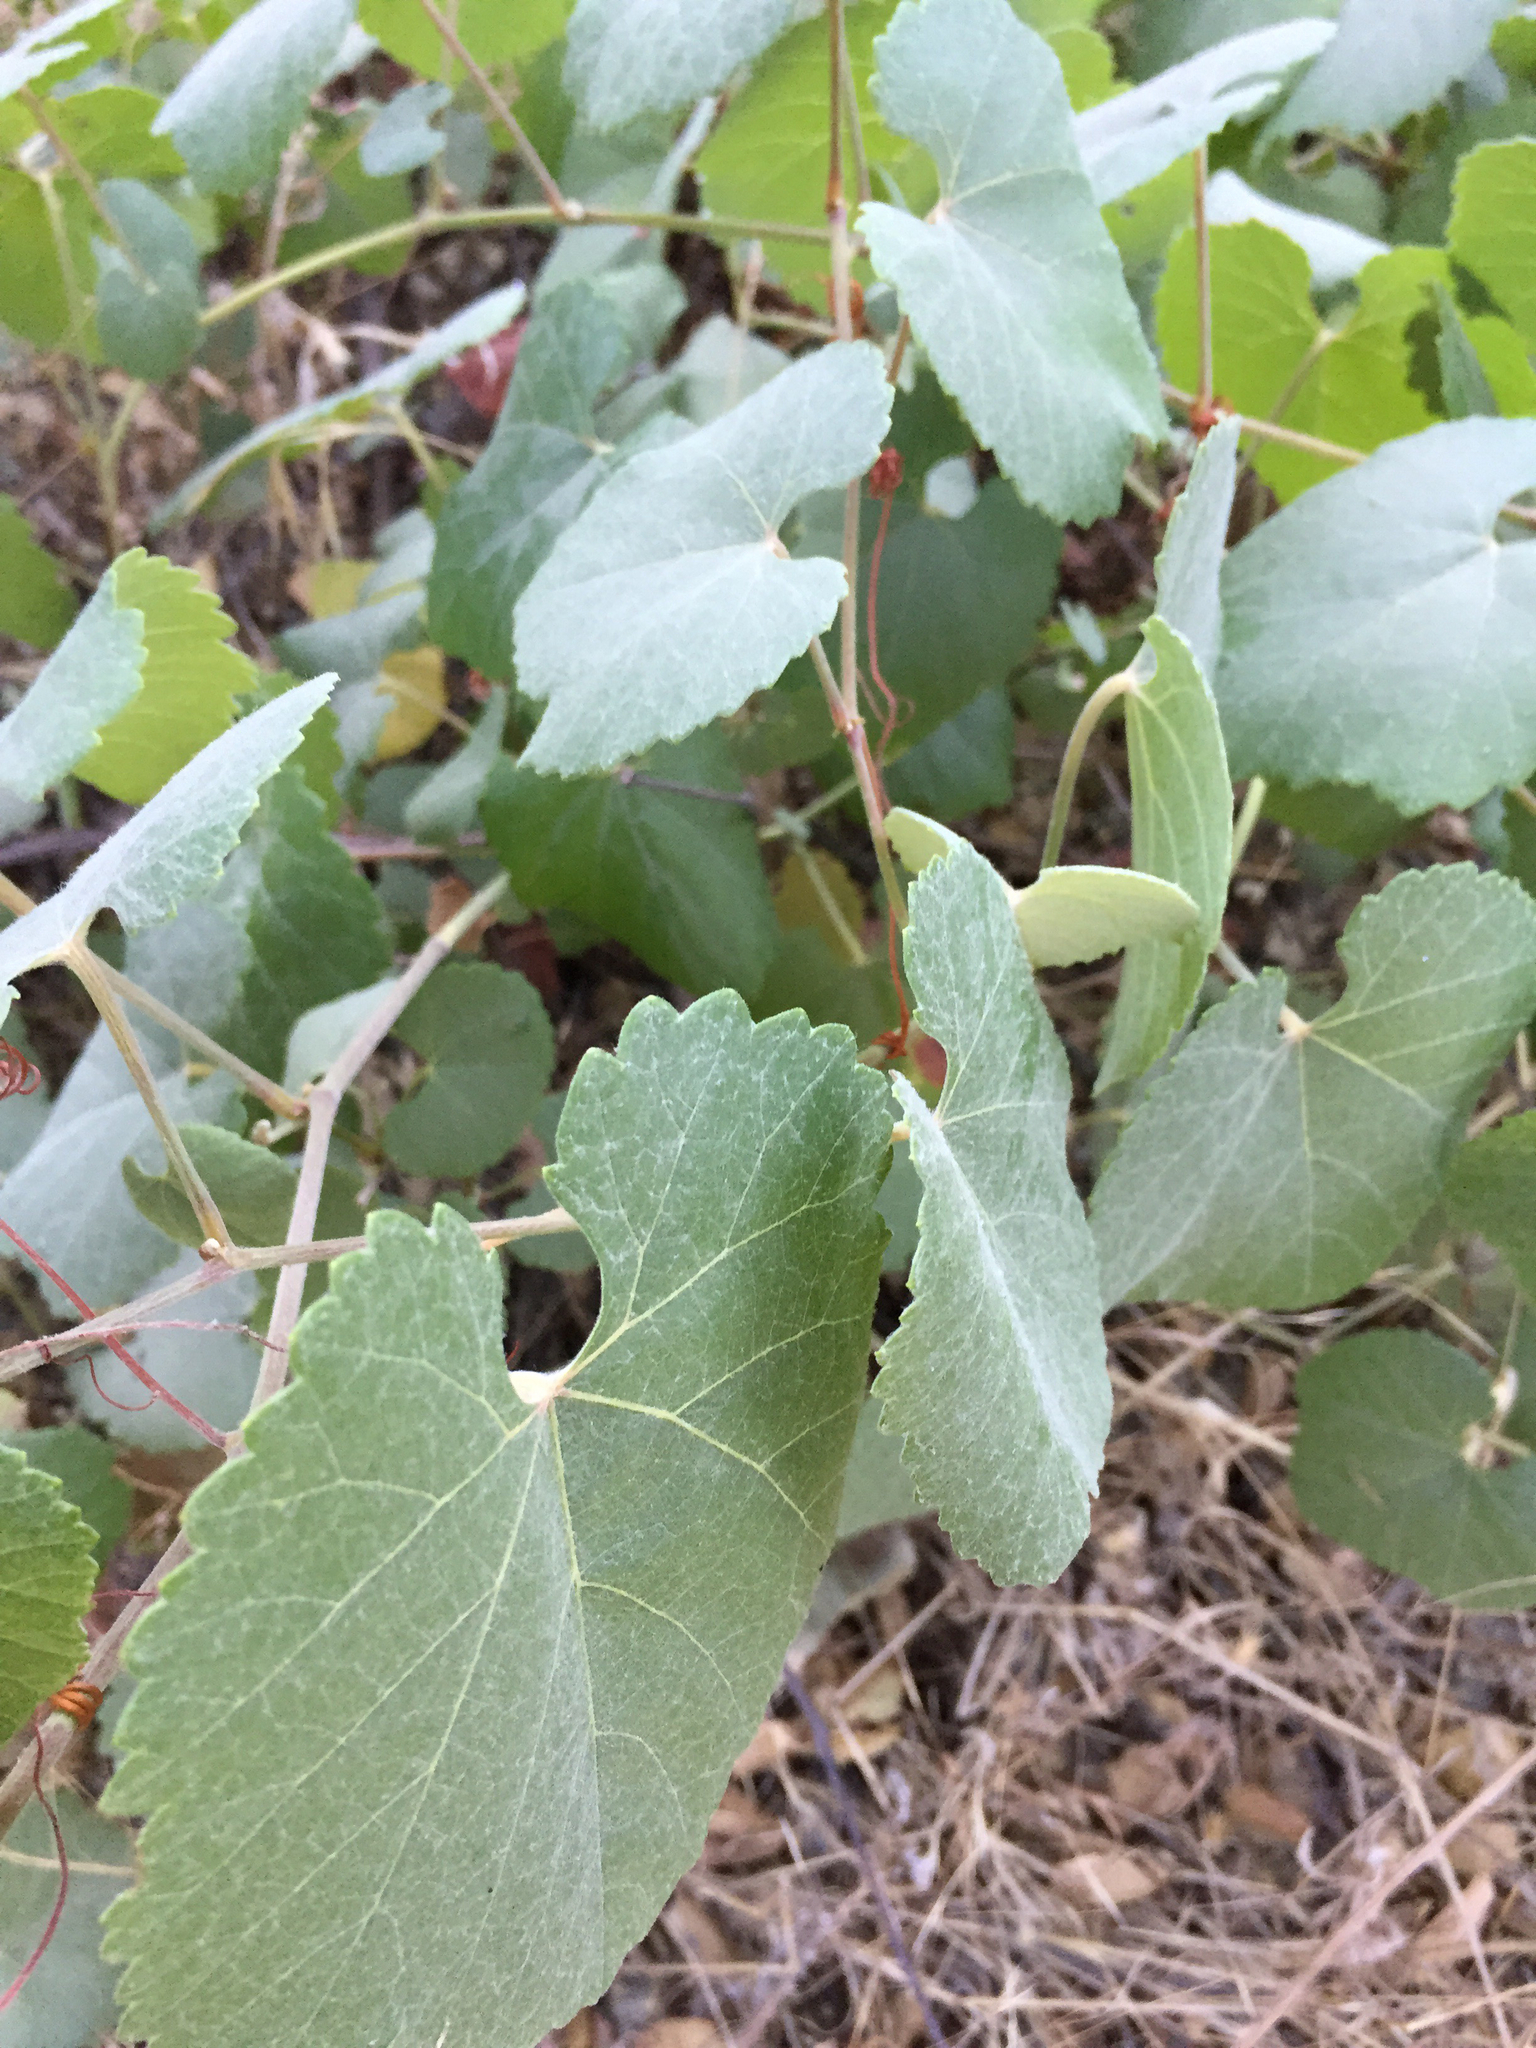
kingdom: Plantae
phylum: Tracheophyta
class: Magnoliopsida
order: Vitales
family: Vitaceae
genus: Vitis
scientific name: Vitis californica
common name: California wild grape
